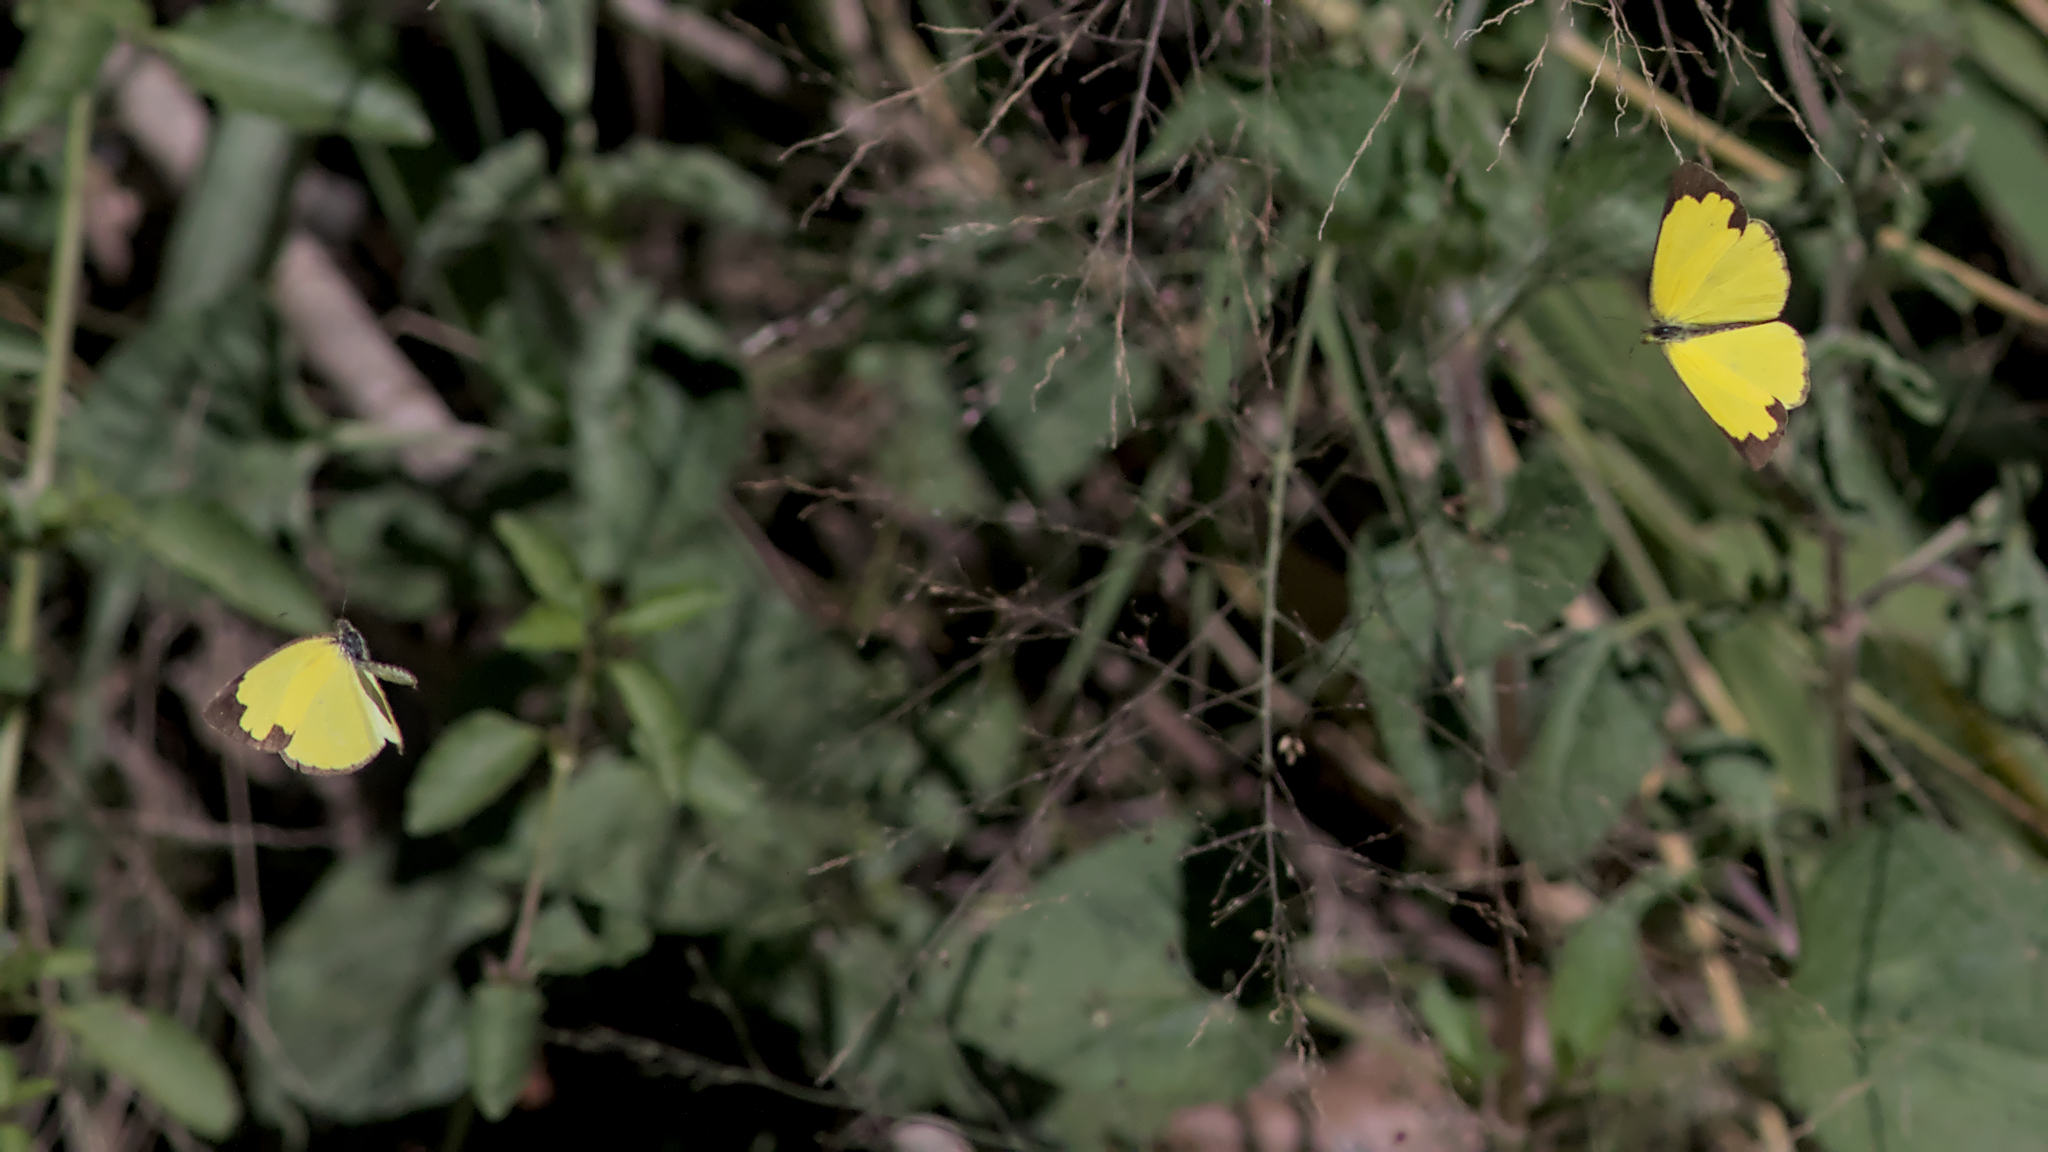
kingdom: Animalia
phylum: Arthropoda
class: Insecta
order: Lepidoptera
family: Pieridae
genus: Eurema
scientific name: Eurema hecabe
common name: Pale grass yellow
